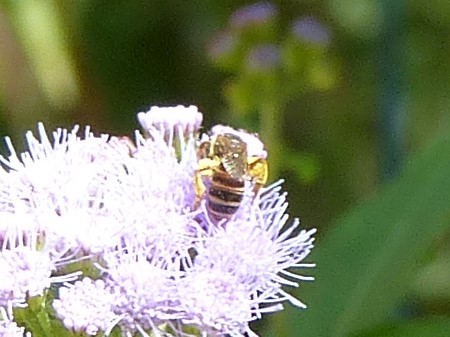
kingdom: Animalia
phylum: Arthropoda
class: Insecta
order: Hymenoptera
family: Halictidae
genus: Halictus
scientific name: Halictus ligatus
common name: Ligated furrow bee
